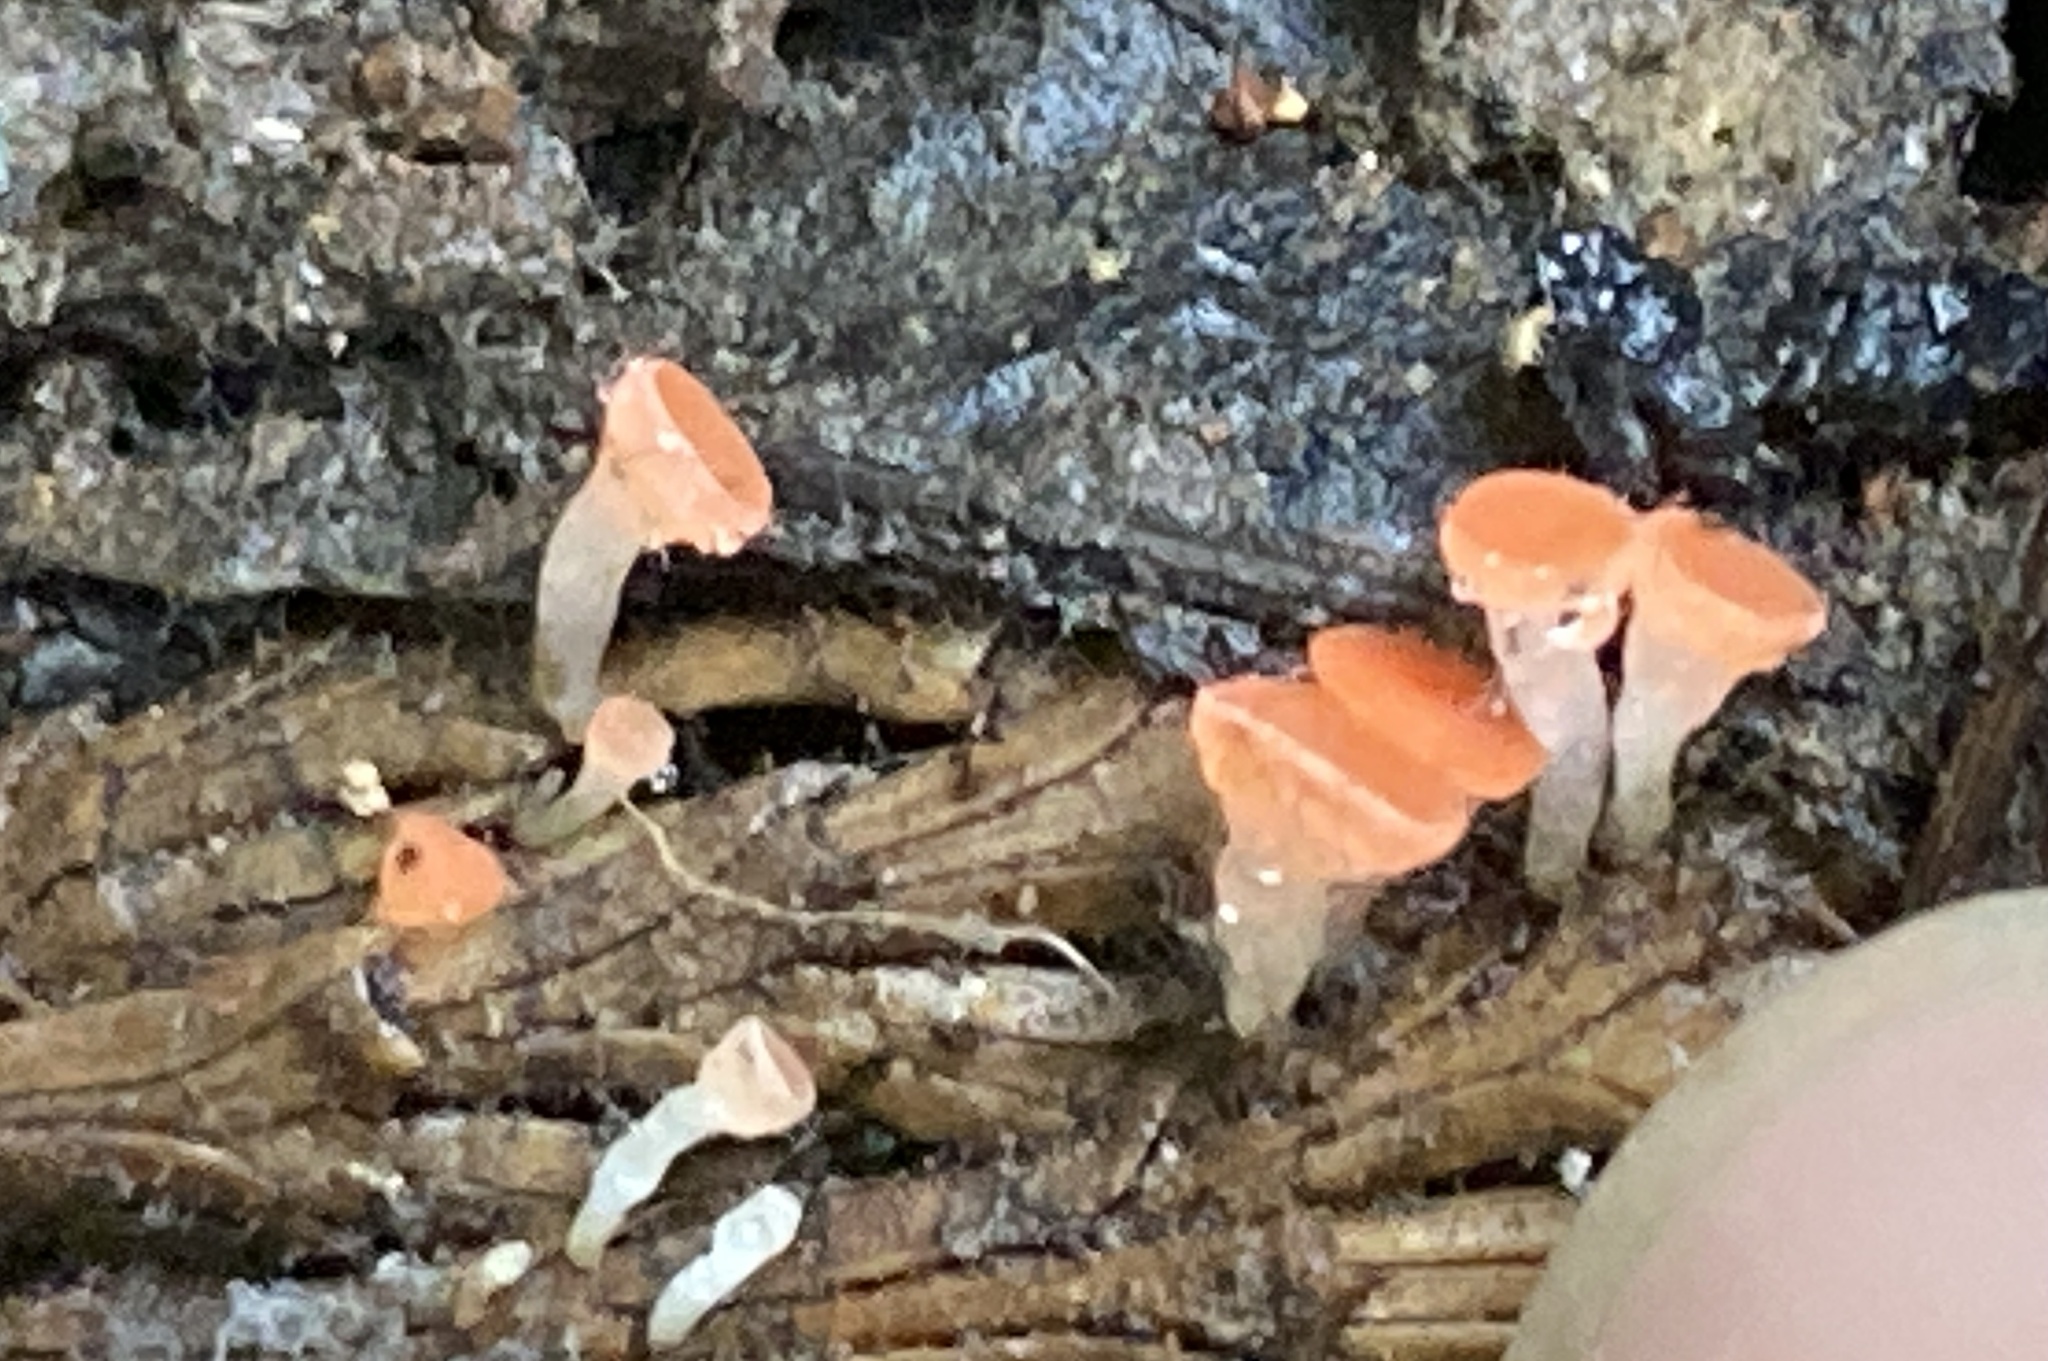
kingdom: Fungi
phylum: Ascomycota
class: Pezizomycetes
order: Pezizales
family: Sarcoscyphaceae
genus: Pseudopithyella
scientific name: Pseudopithyella minuscula
